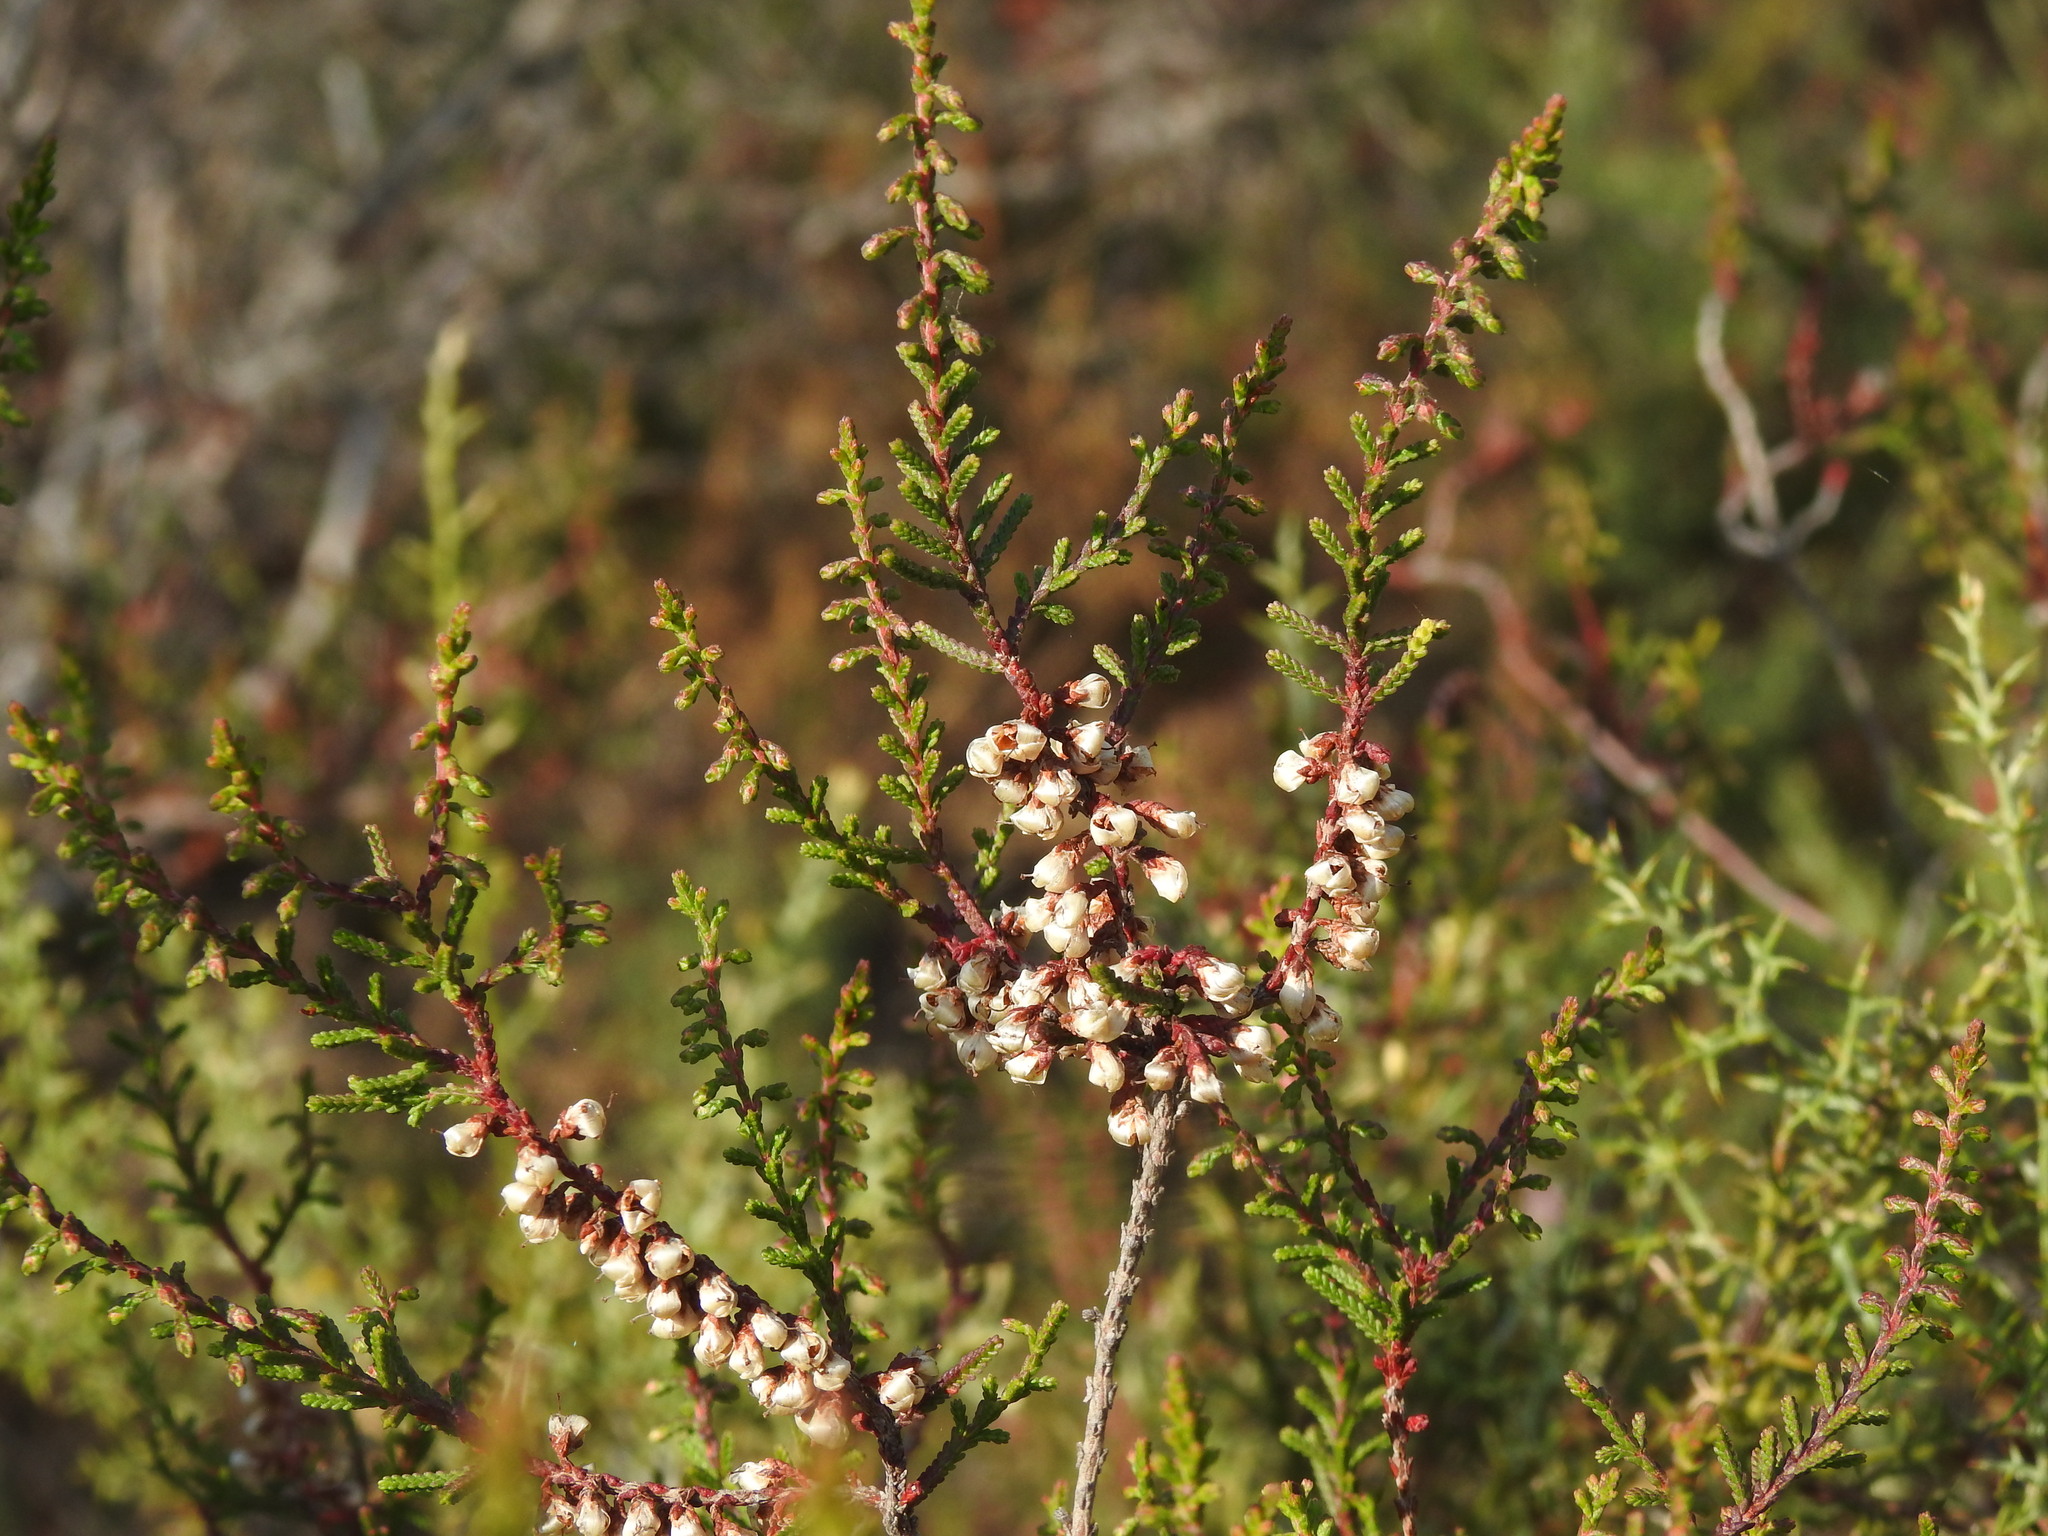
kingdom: Plantae
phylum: Tracheophyta
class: Magnoliopsida
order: Ericales
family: Ericaceae
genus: Calluna
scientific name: Calluna vulgaris
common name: Heather
